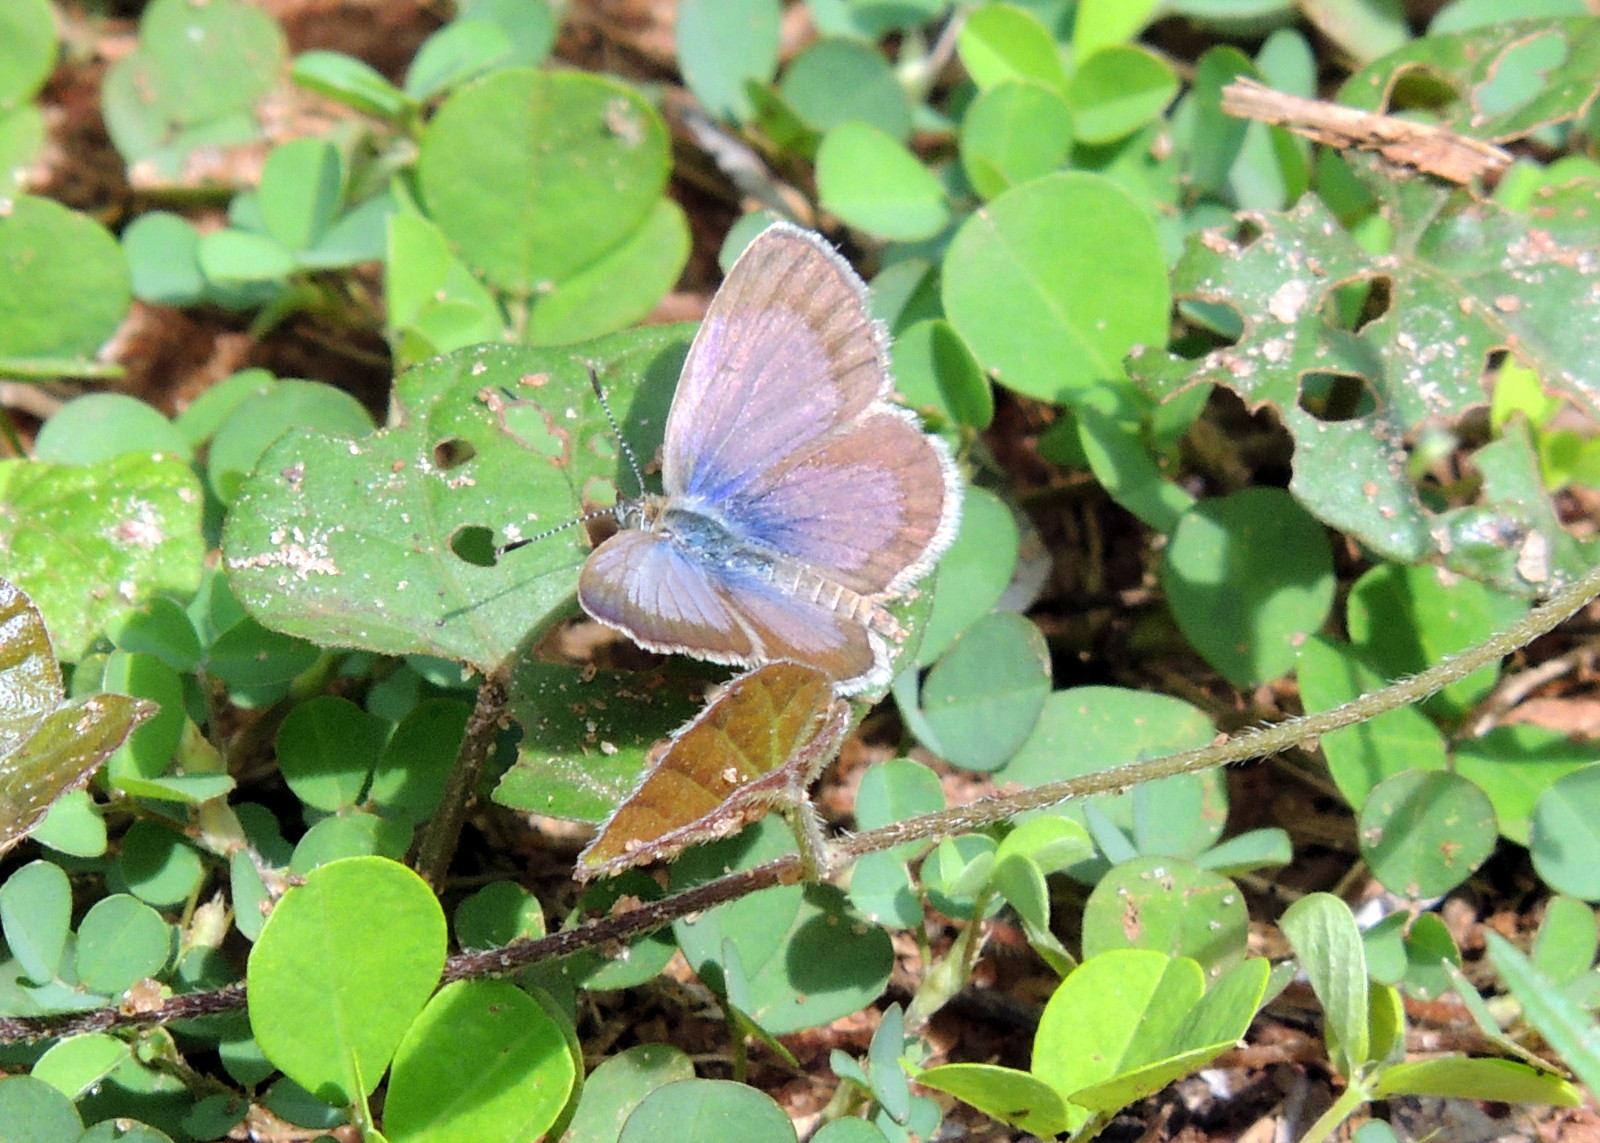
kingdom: Animalia
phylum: Arthropoda
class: Insecta
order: Lepidoptera
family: Lycaenidae
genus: Zizeeria
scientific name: Zizeeria knysna
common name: African grass blue
